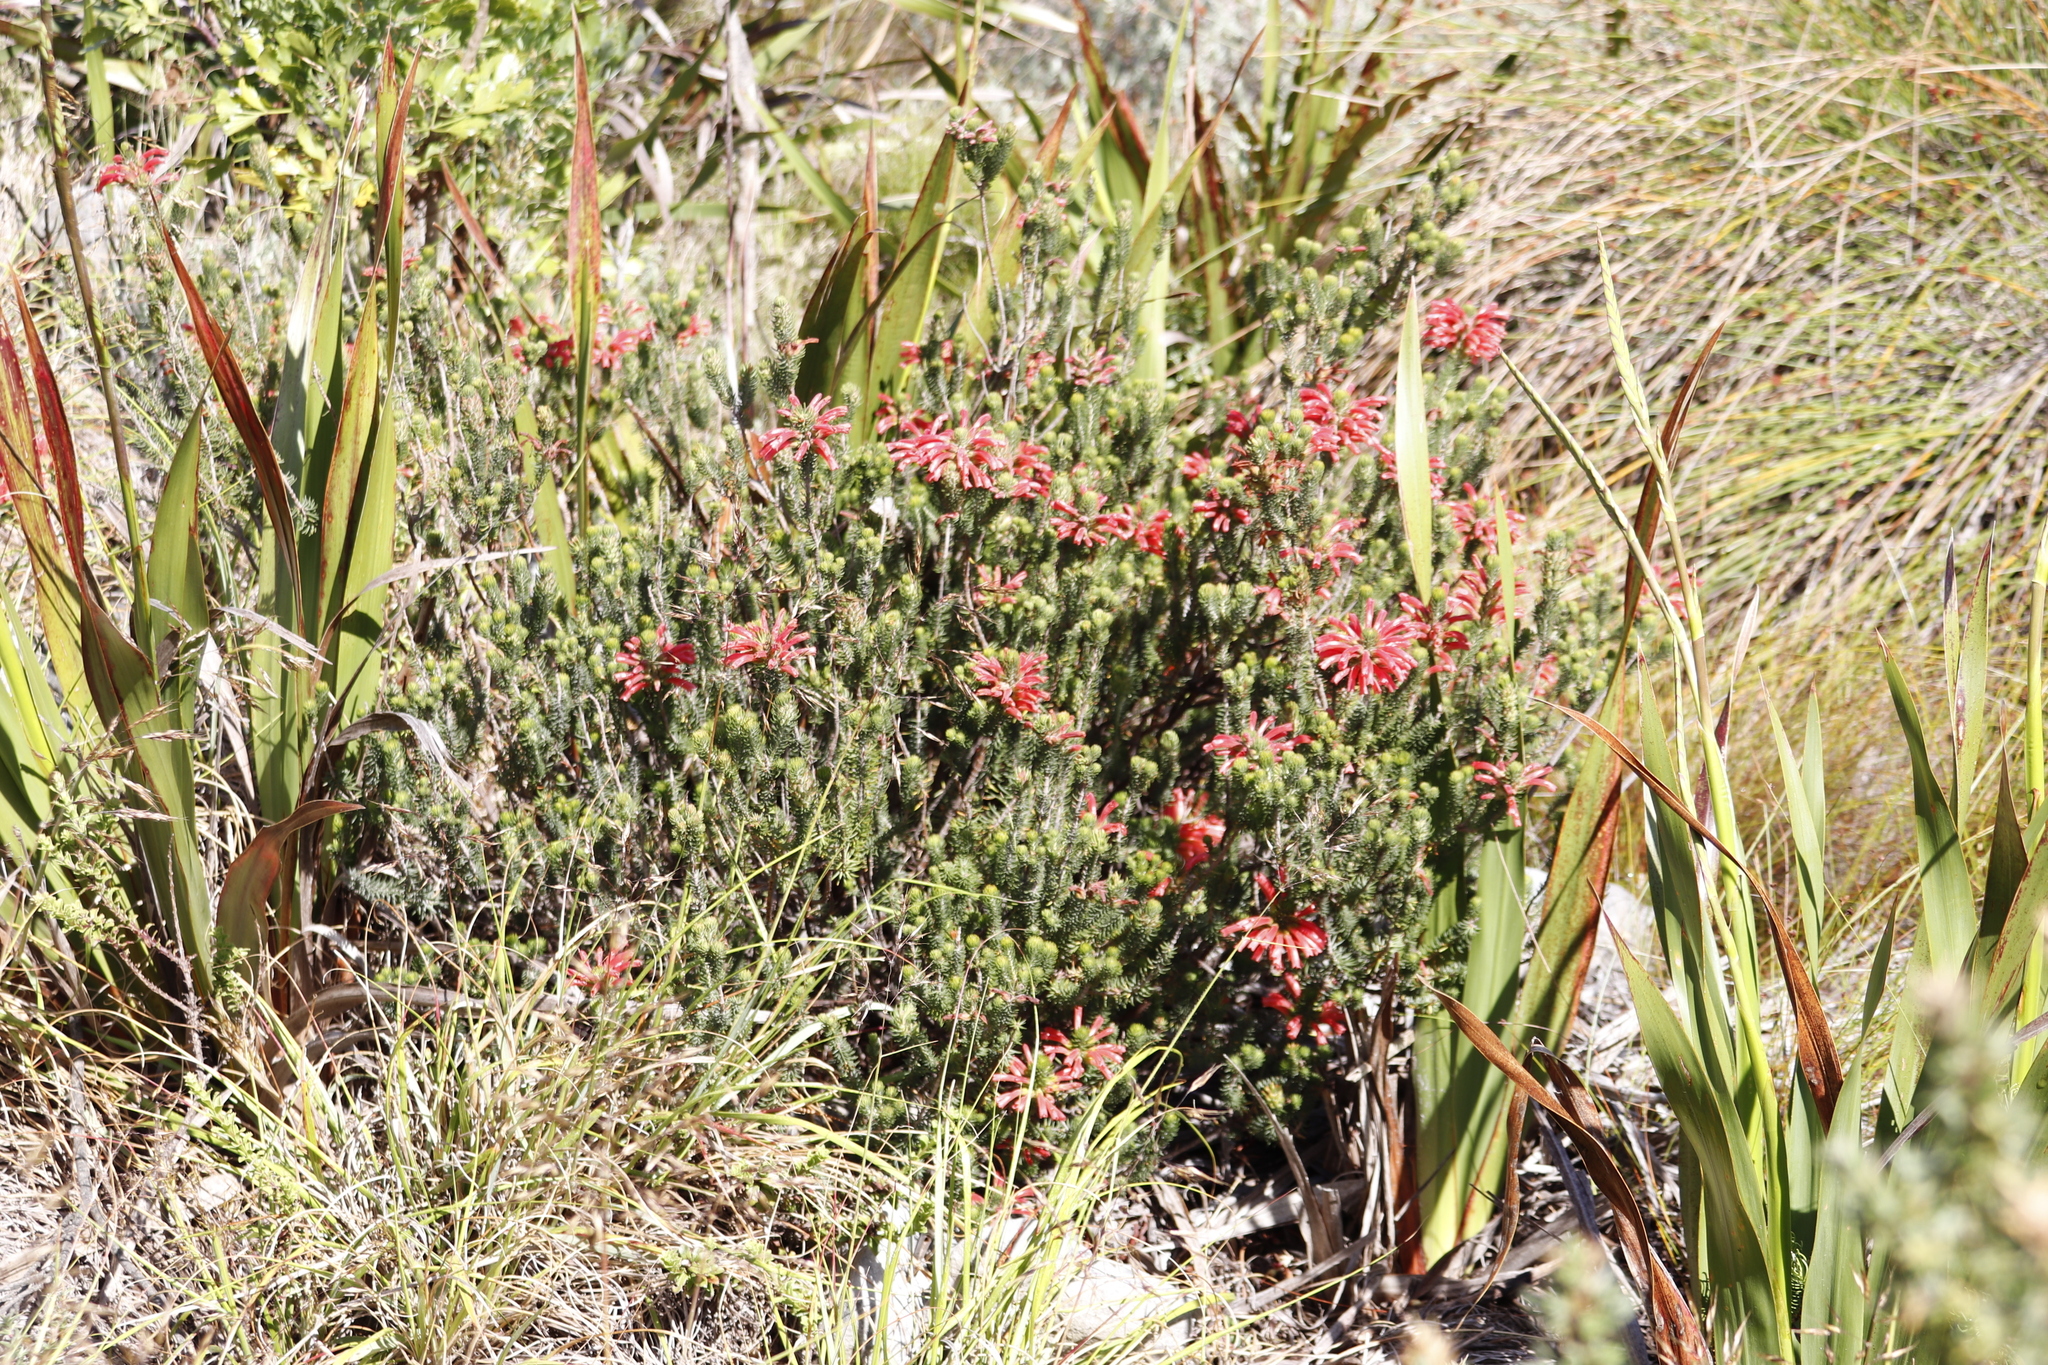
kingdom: Plantae
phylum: Tracheophyta
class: Magnoliopsida
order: Ericales
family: Ericaceae
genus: Erica
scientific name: Erica abietina
